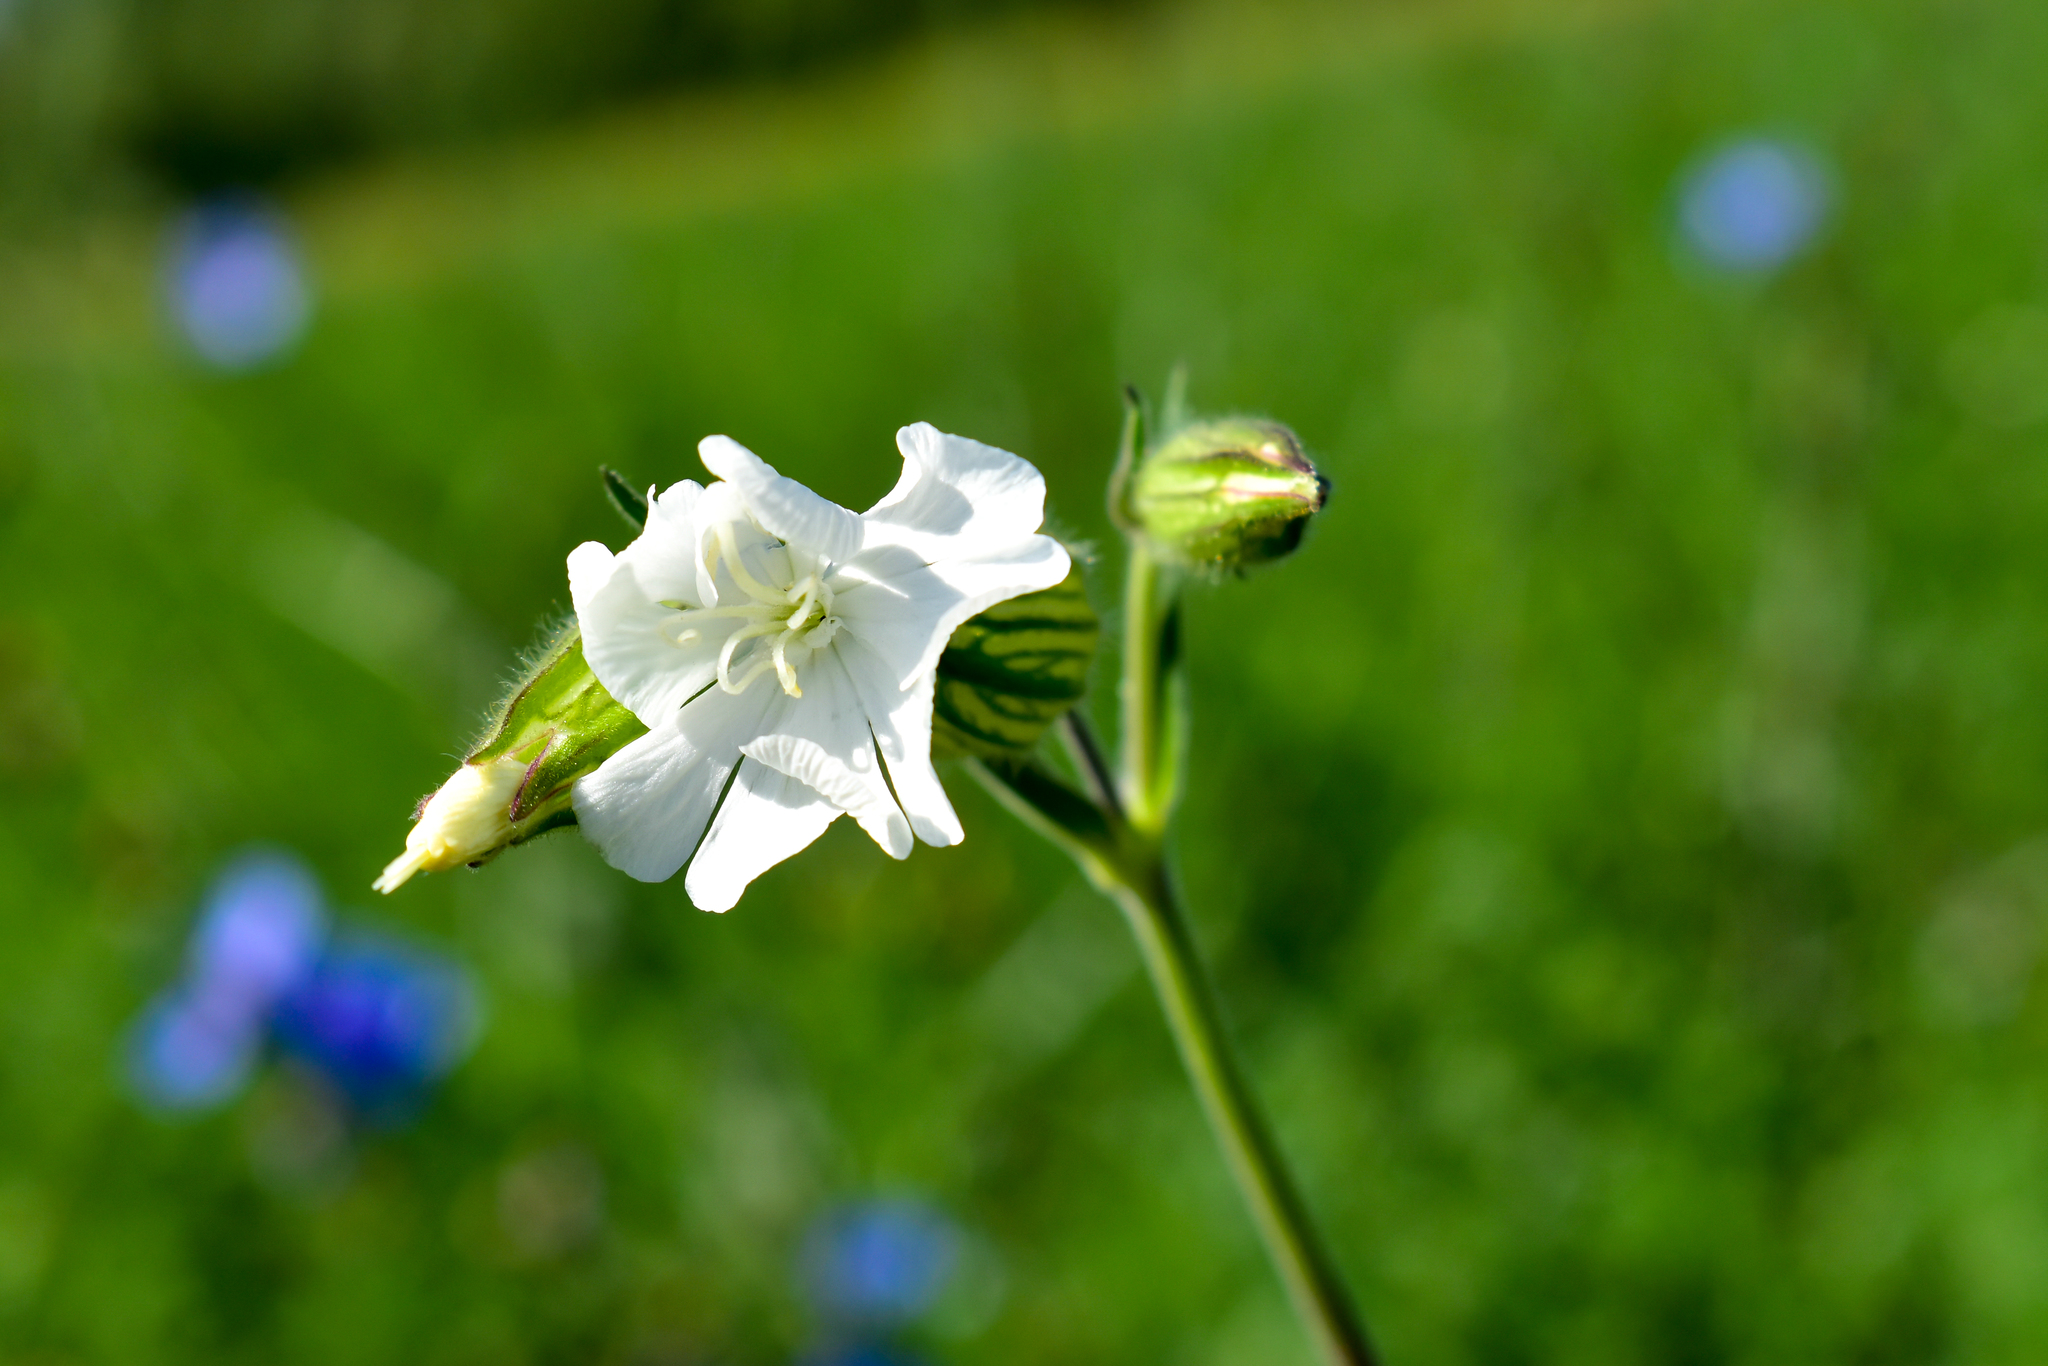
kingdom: Plantae
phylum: Tracheophyta
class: Magnoliopsida
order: Caryophyllales
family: Caryophyllaceae
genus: Silene
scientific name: Silene latifolia
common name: White campion
